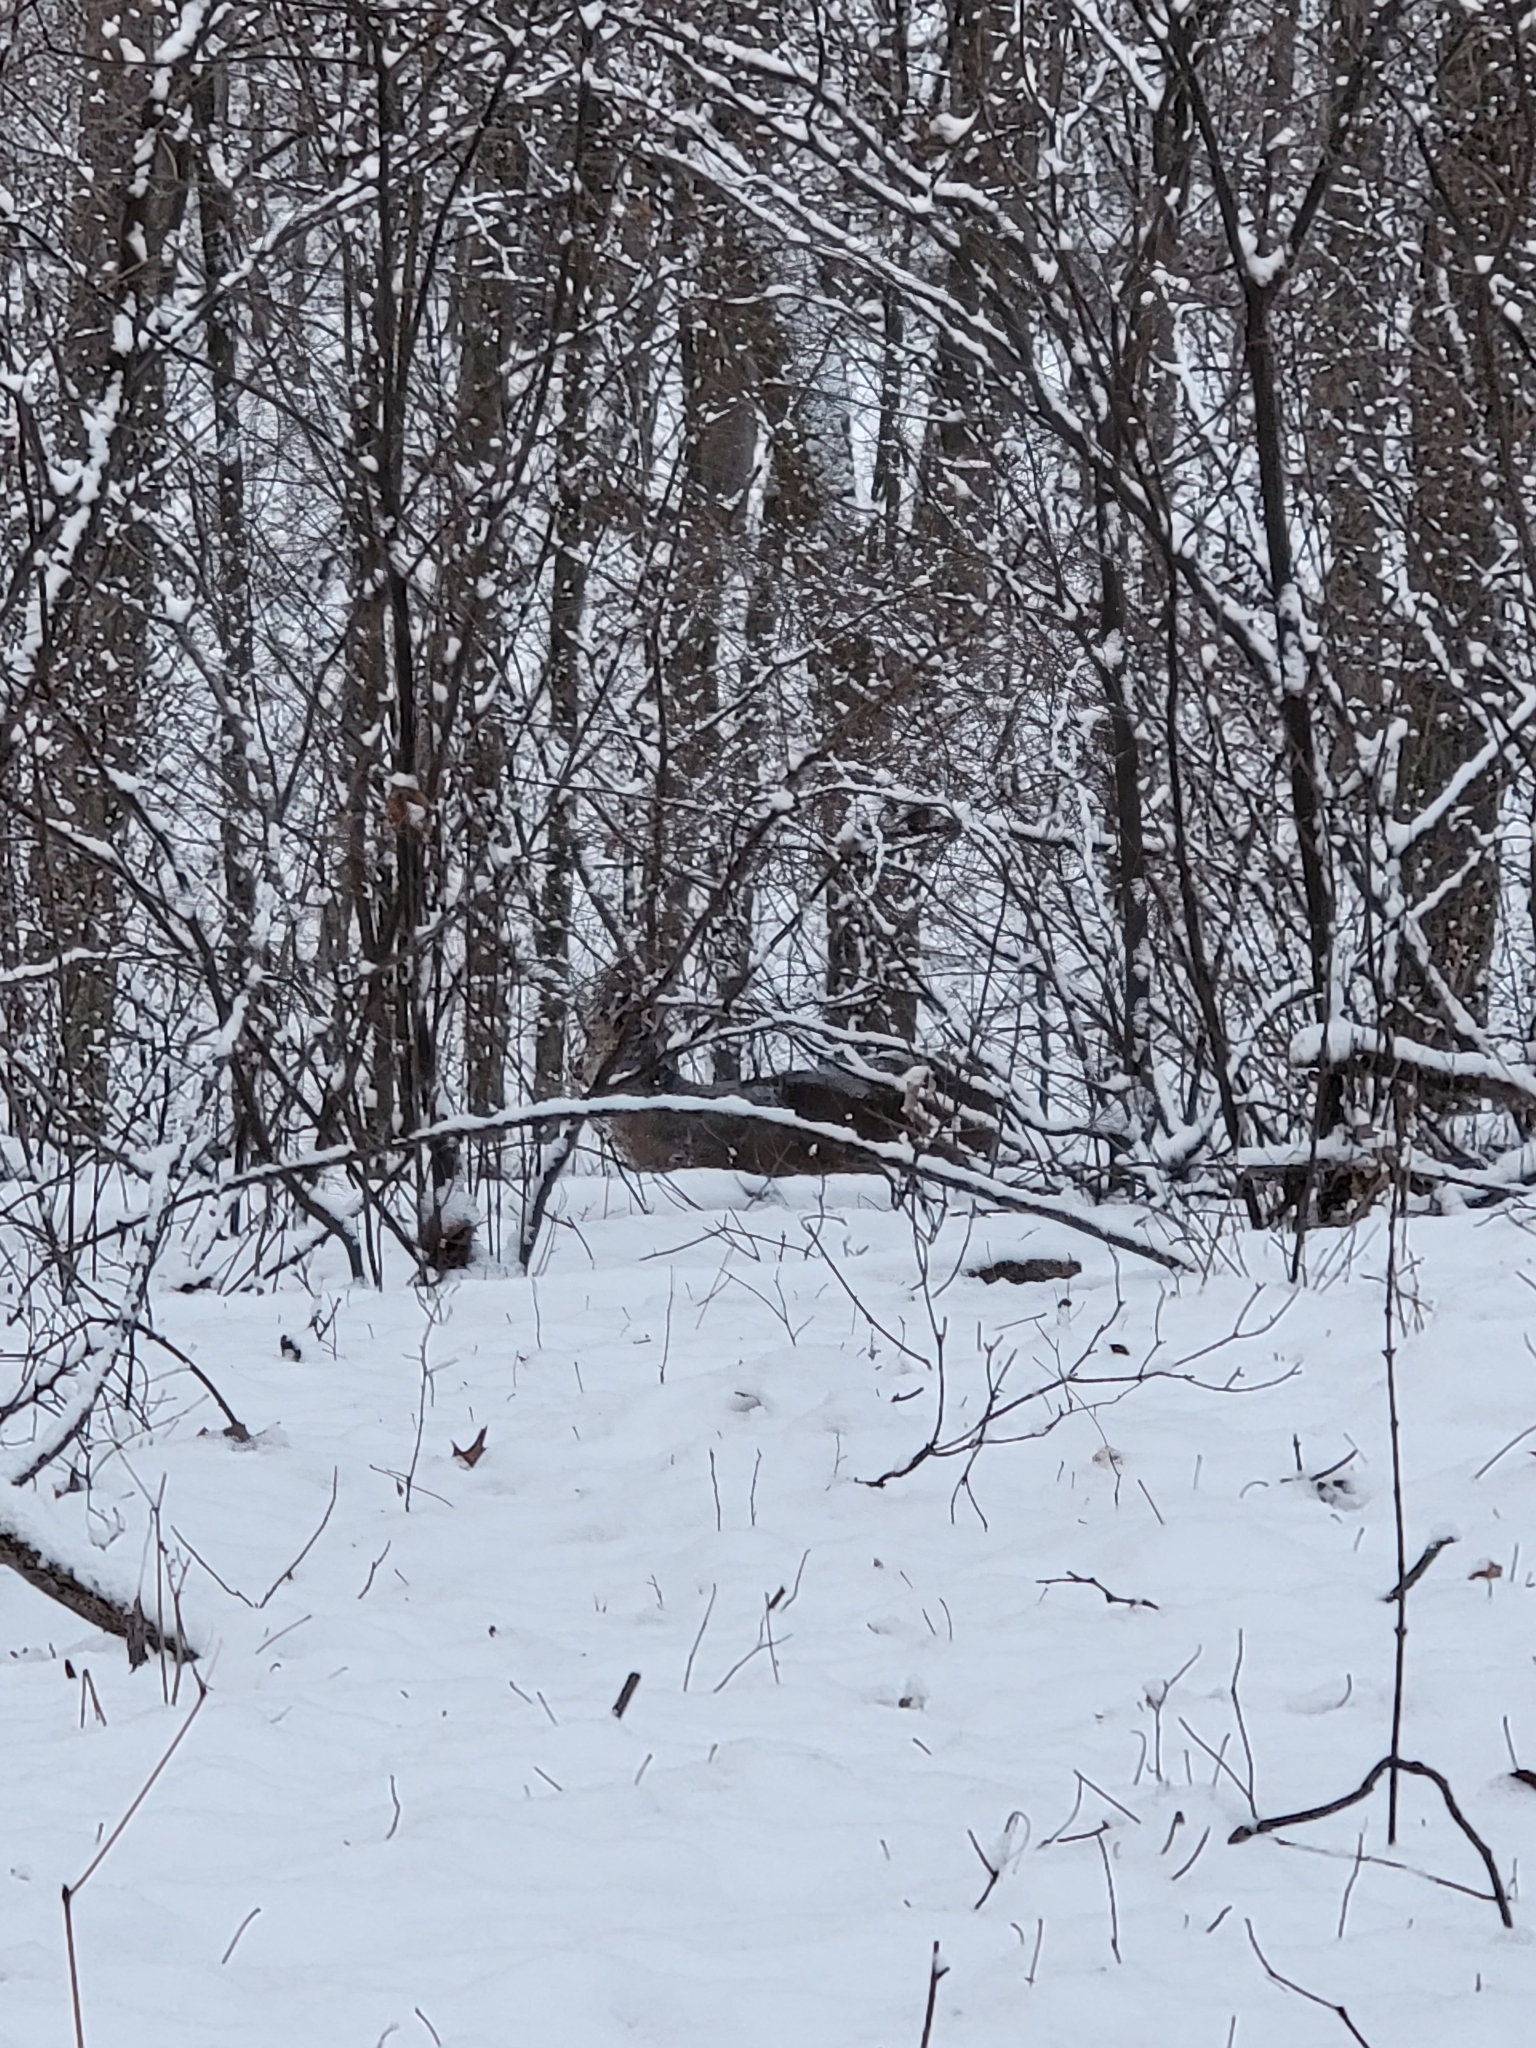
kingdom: Animalia
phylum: Chordata
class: Mammalia
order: Artiodactyla
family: Cervidae
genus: Odocoileus
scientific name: Odocoileus virginianus
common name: White-tailed deer
